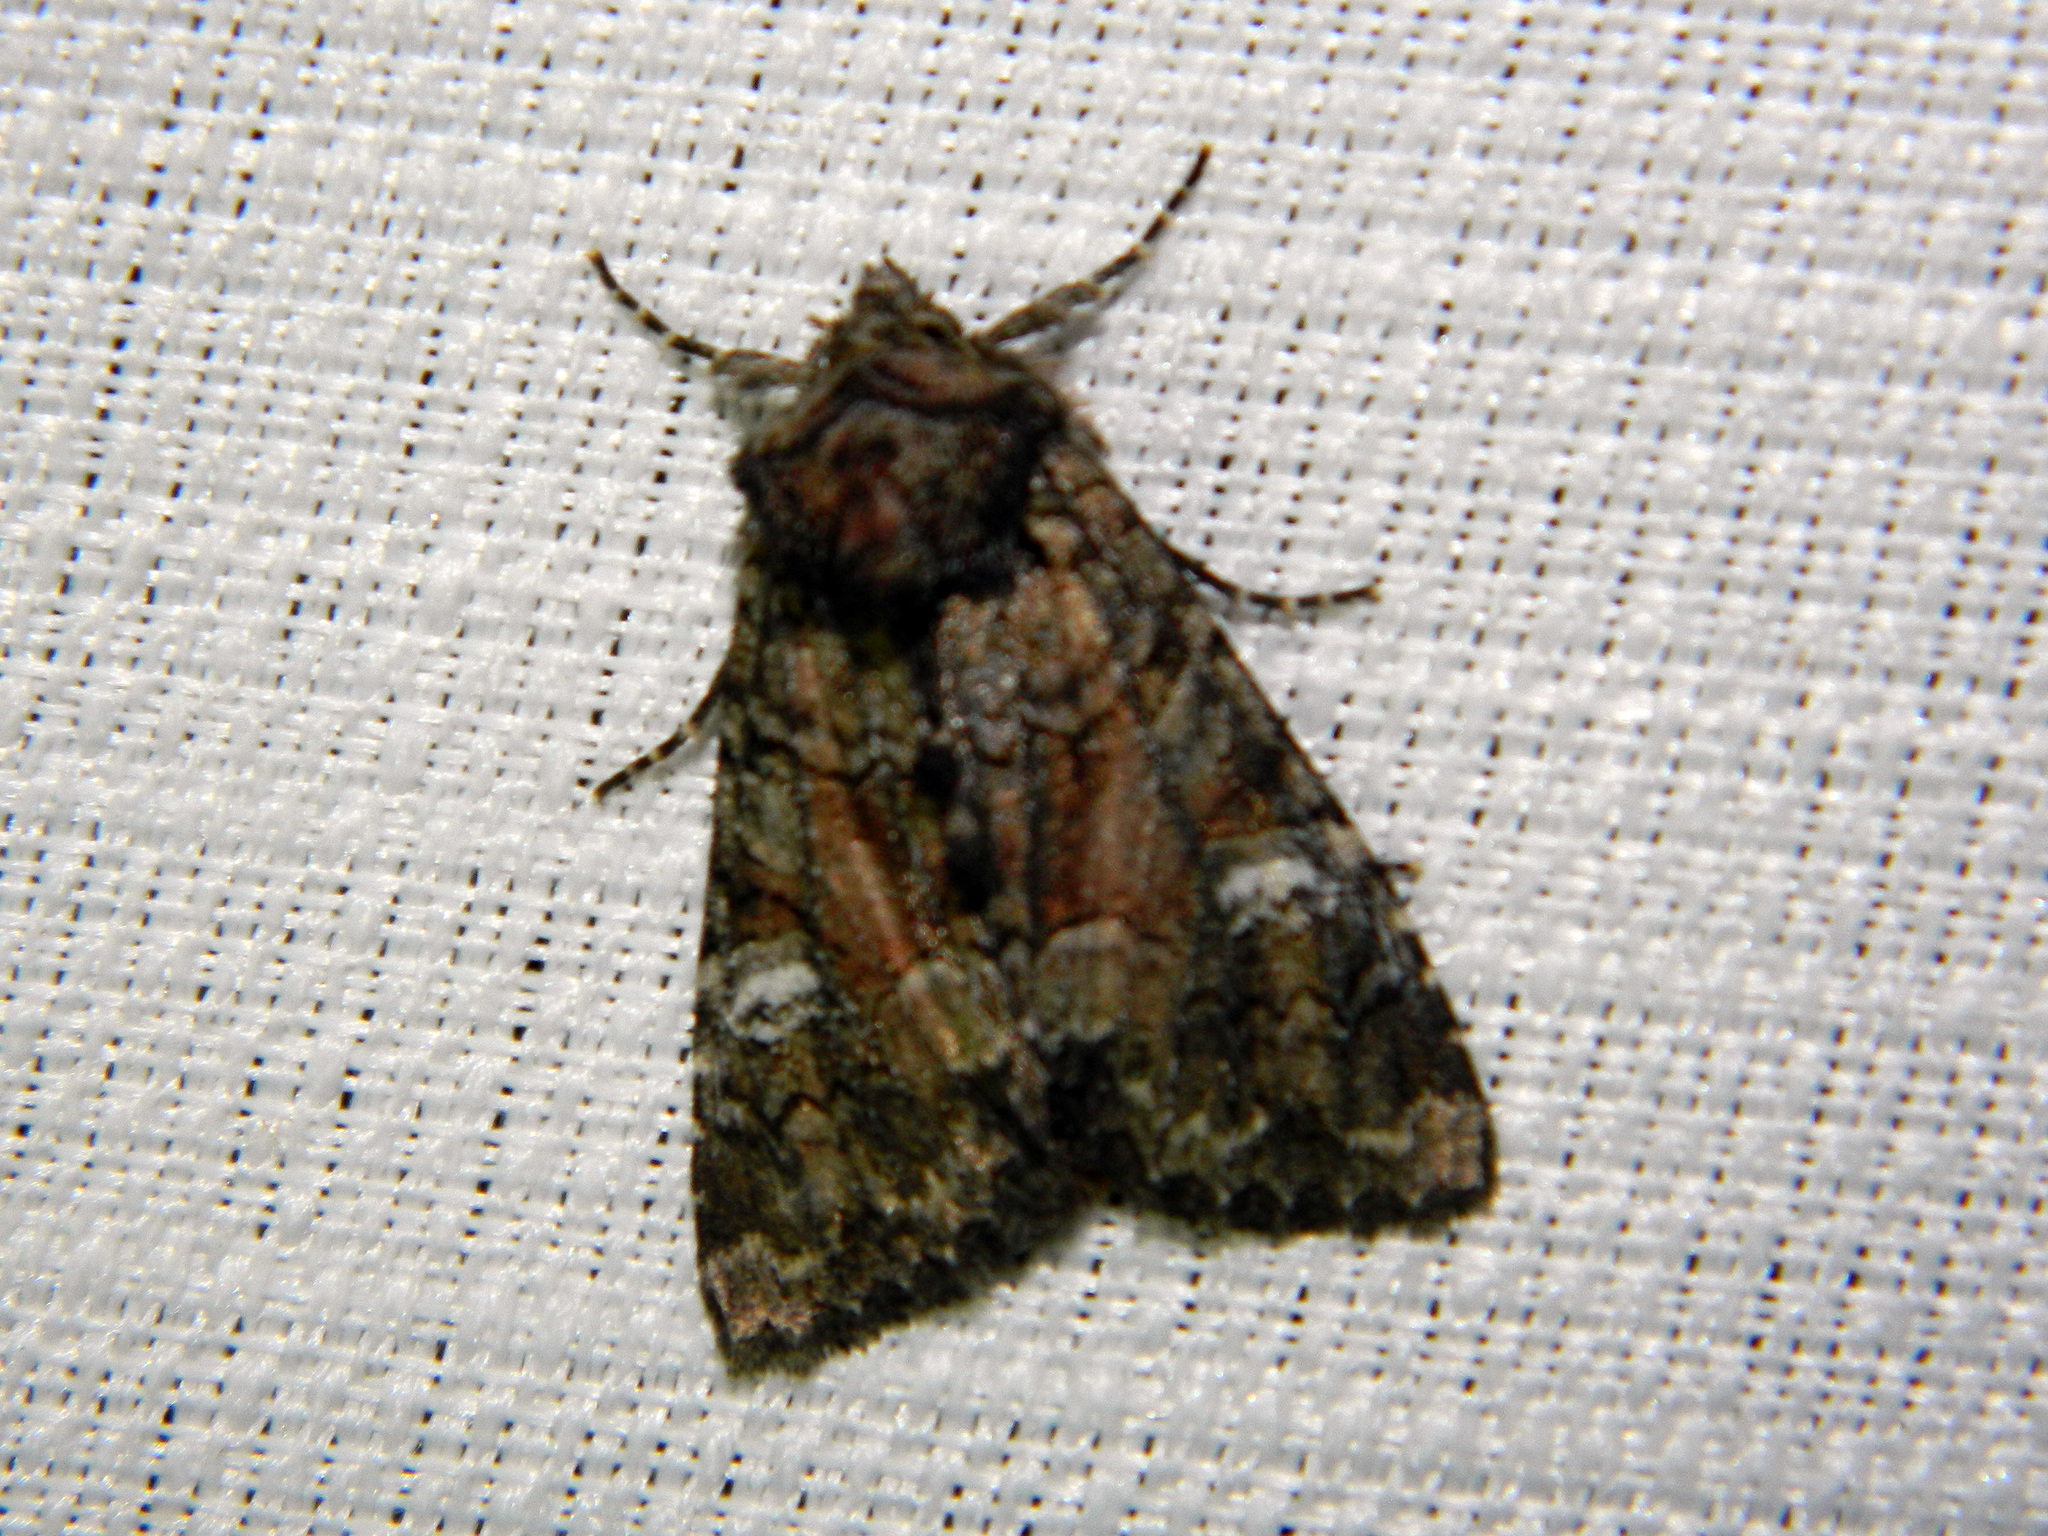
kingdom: Animalia
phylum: Arthropoda
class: Insecta
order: Lepidoptera
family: Noctuidae
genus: Fishia
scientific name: Fishia illocata
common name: Wandering brocade moth
